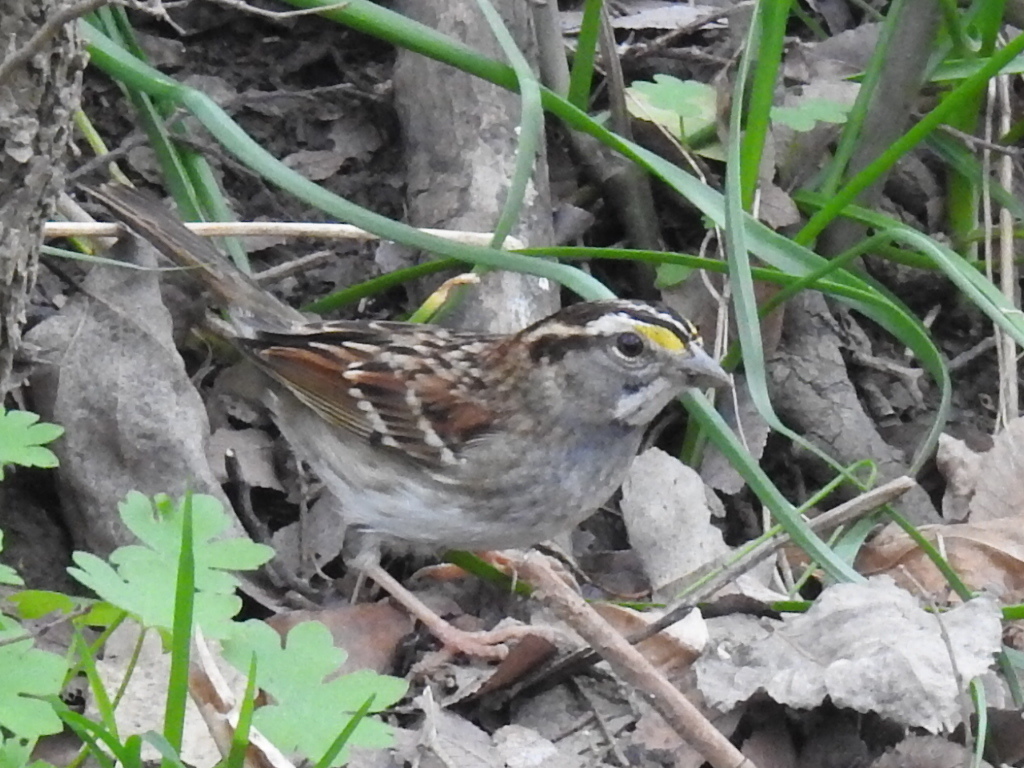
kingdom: Animalia
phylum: Chordata
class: Aves
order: Passeriformes
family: Passerellidae
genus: Zonotrichia
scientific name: Zonotrichia albicollis
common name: White-throated sparrow
